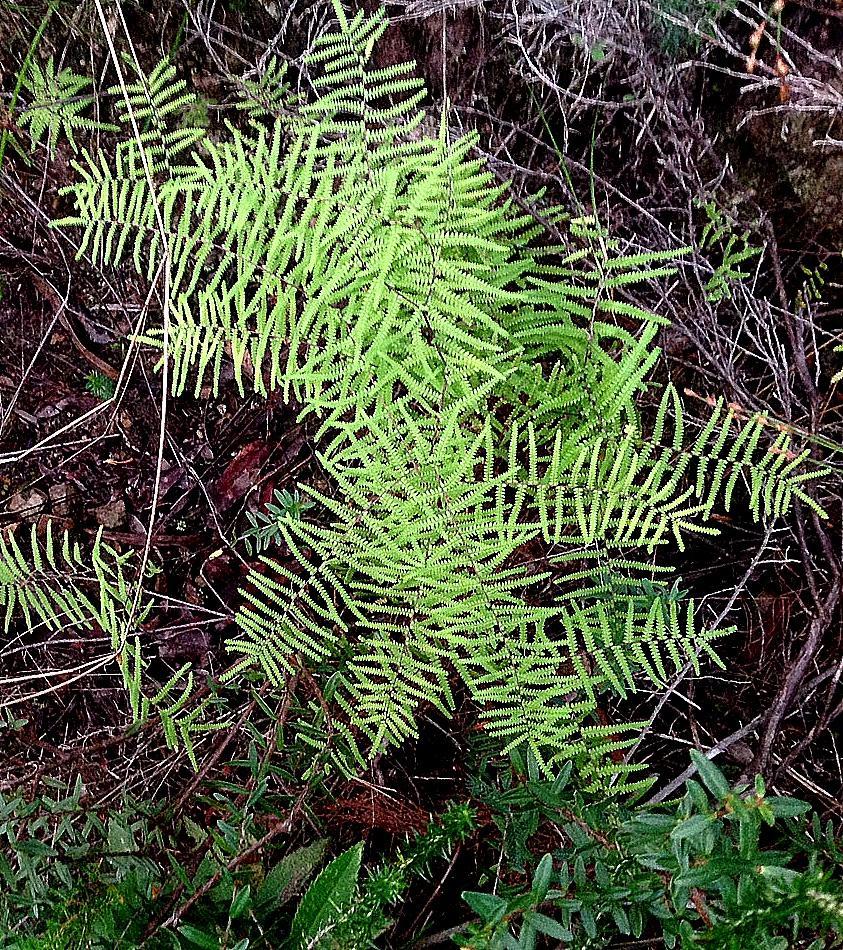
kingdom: Plantae
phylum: Tracheophyta
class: Polypodiopsida
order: Gleicheniales
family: Gleicheniaceae
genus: Gleichenia
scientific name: Gleichenia polypodioides
